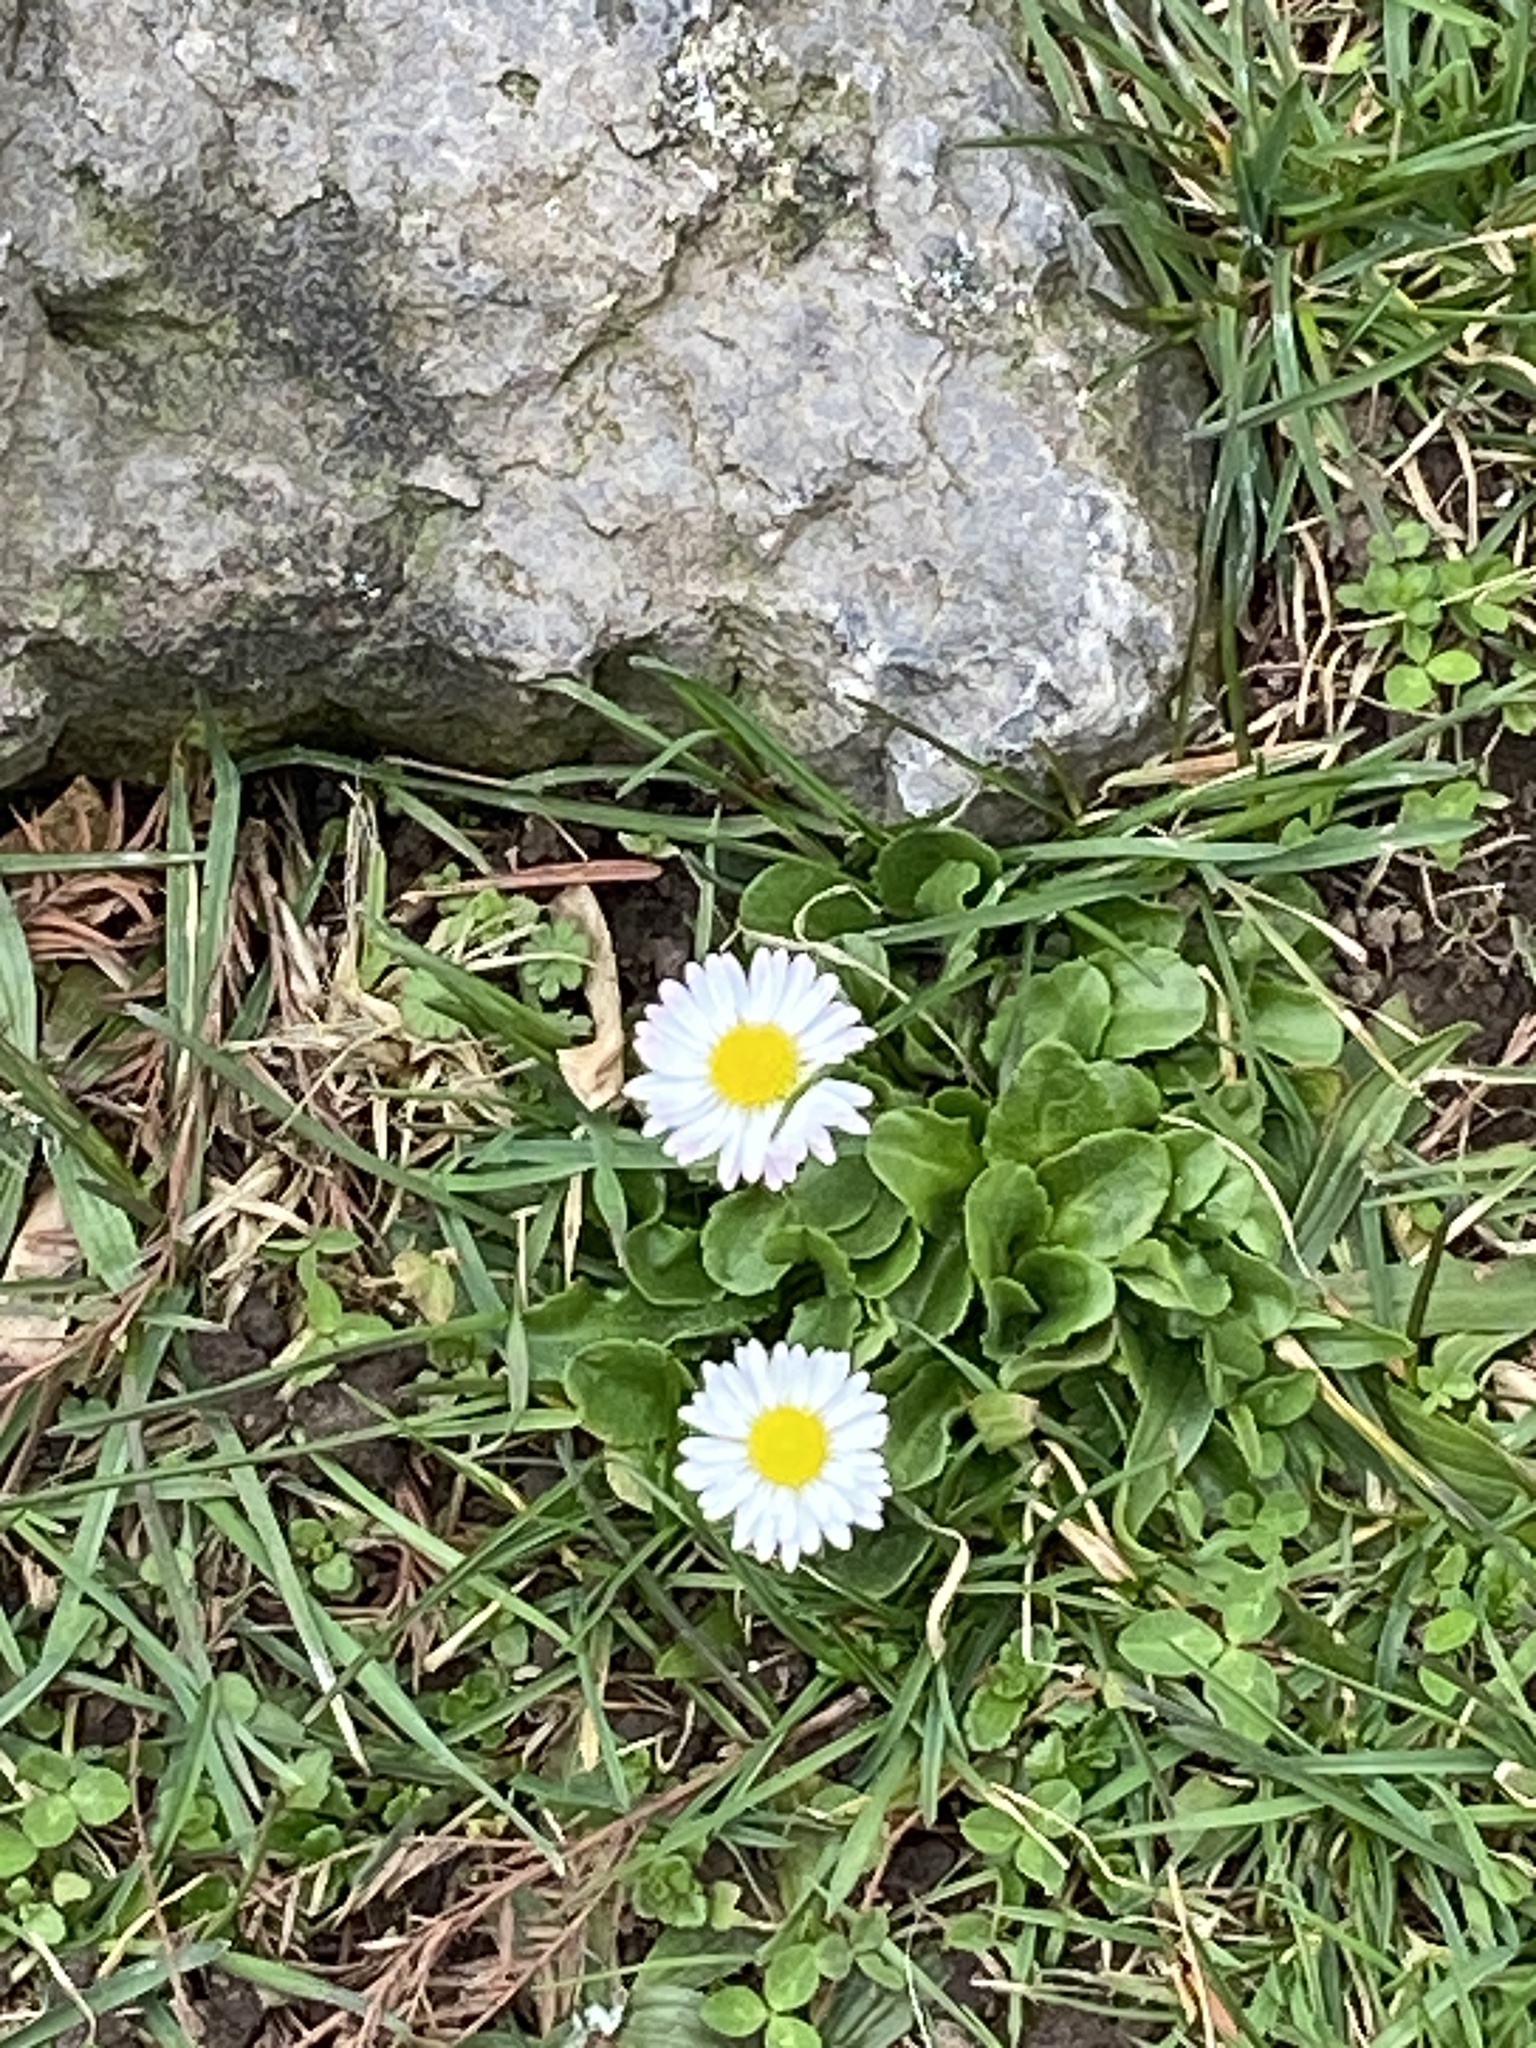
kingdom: Plantae
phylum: Tracheophyta
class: Magnoliopsida
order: Asterales
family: Asteraceae
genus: Bellis
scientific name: Bellis perennis
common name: Lawndaisy
